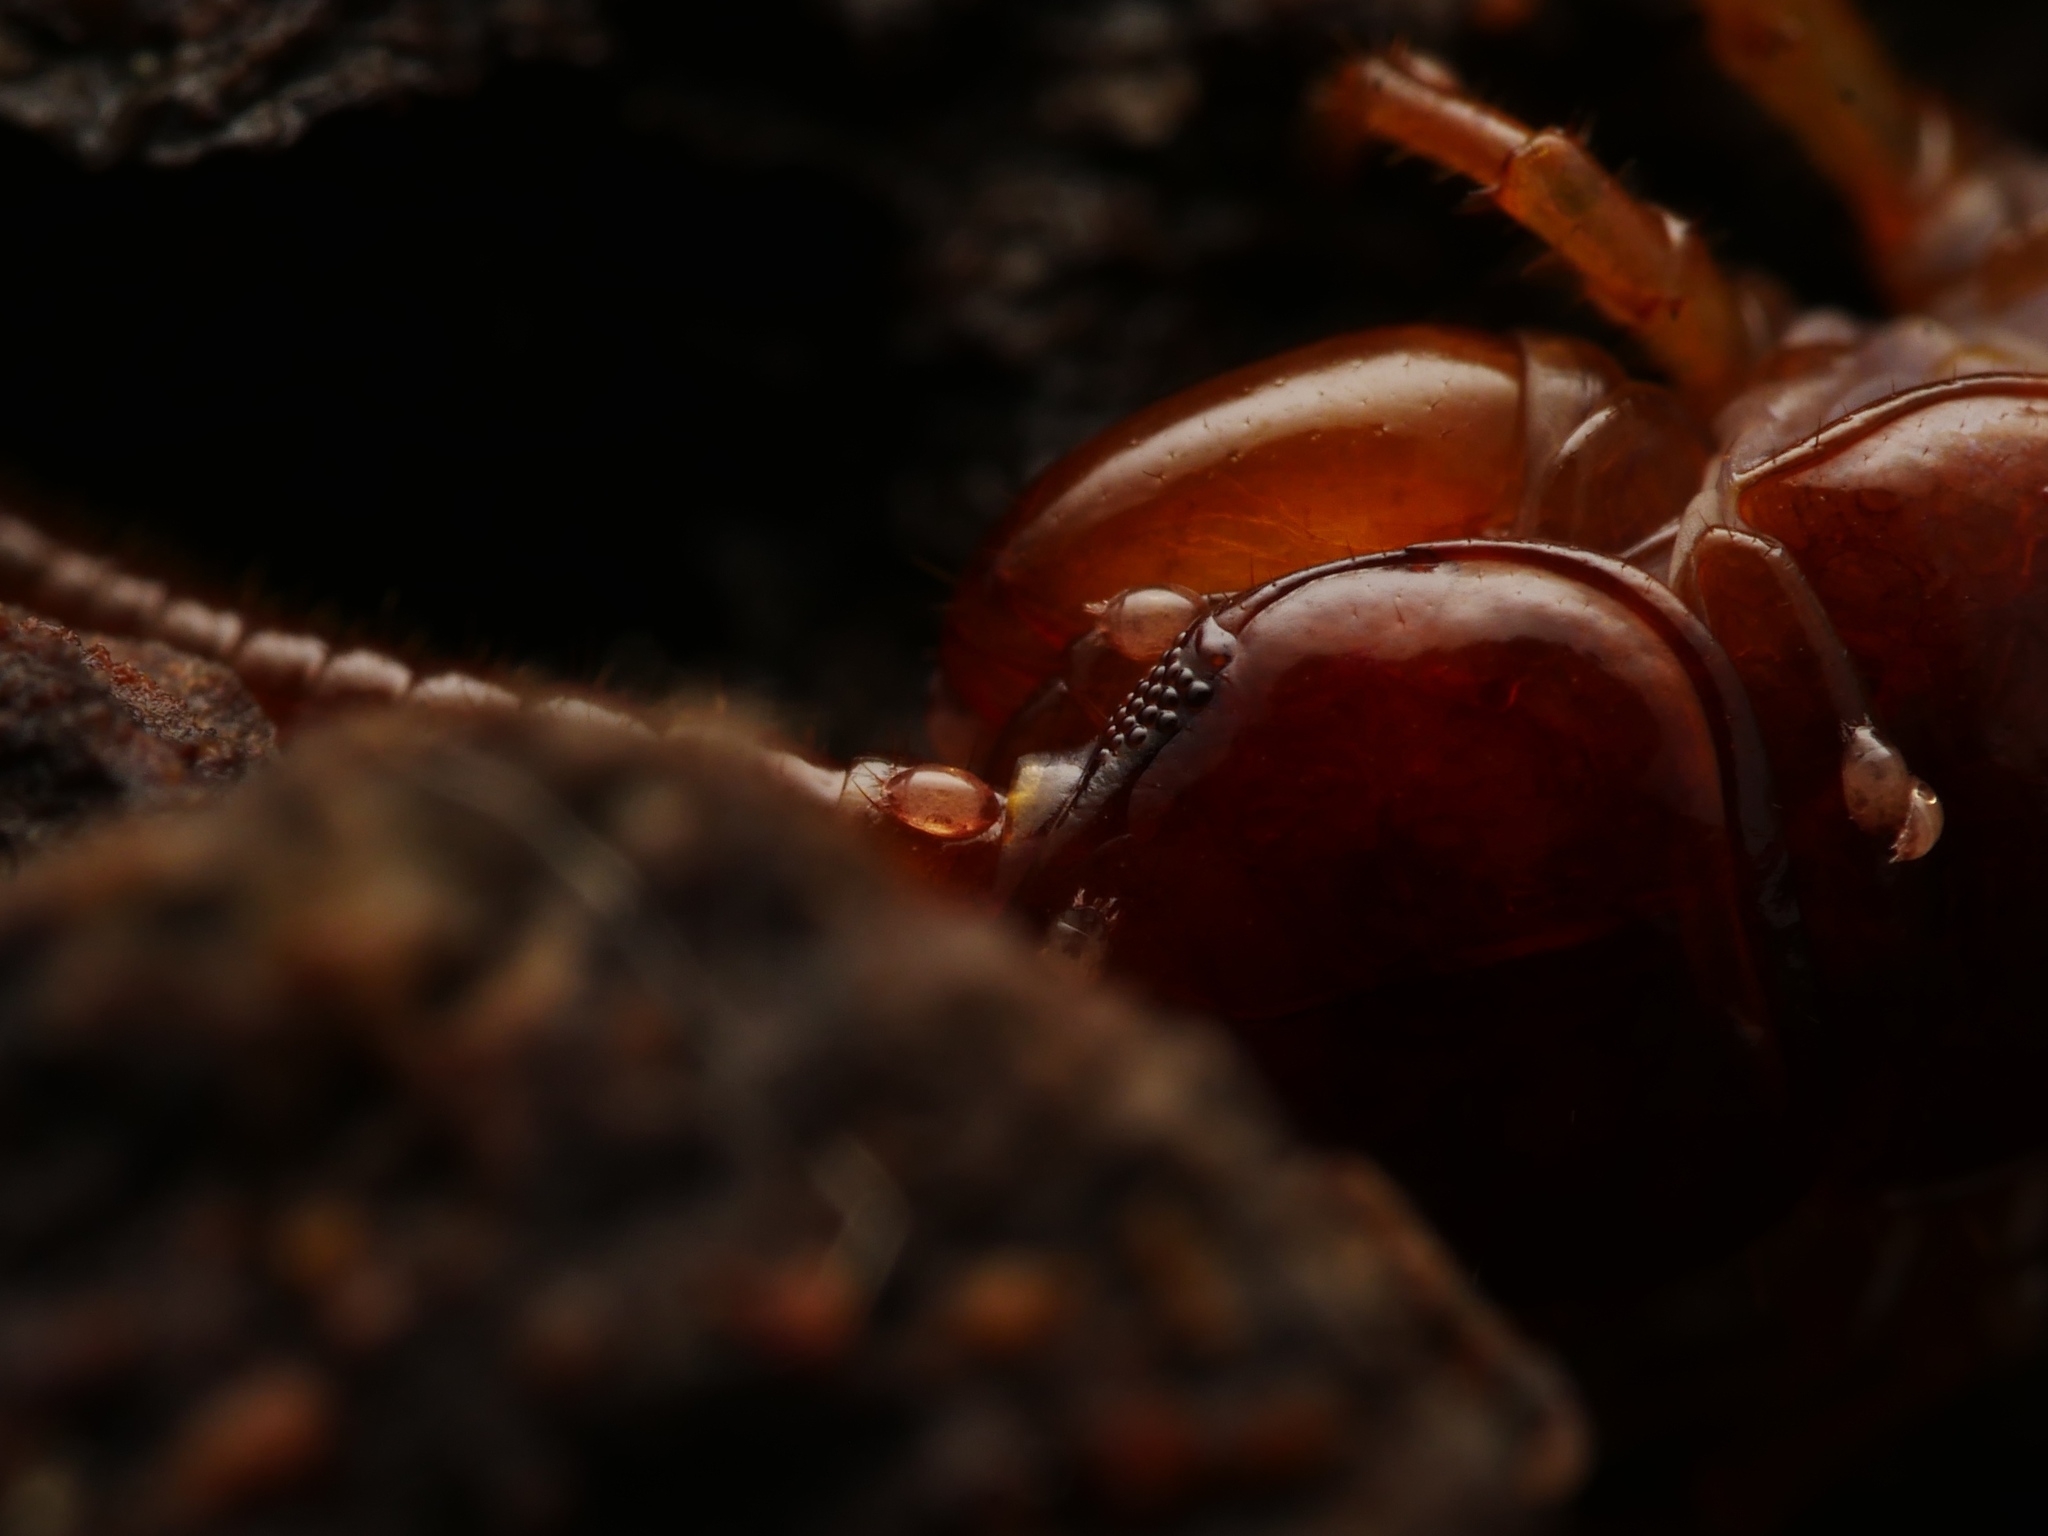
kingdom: Animalia
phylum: Arthropoda
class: Chilopoda
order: Lithobiomorpha
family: Lithobiidae
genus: Lithobius
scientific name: Lithobius forficatus
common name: Centipede
